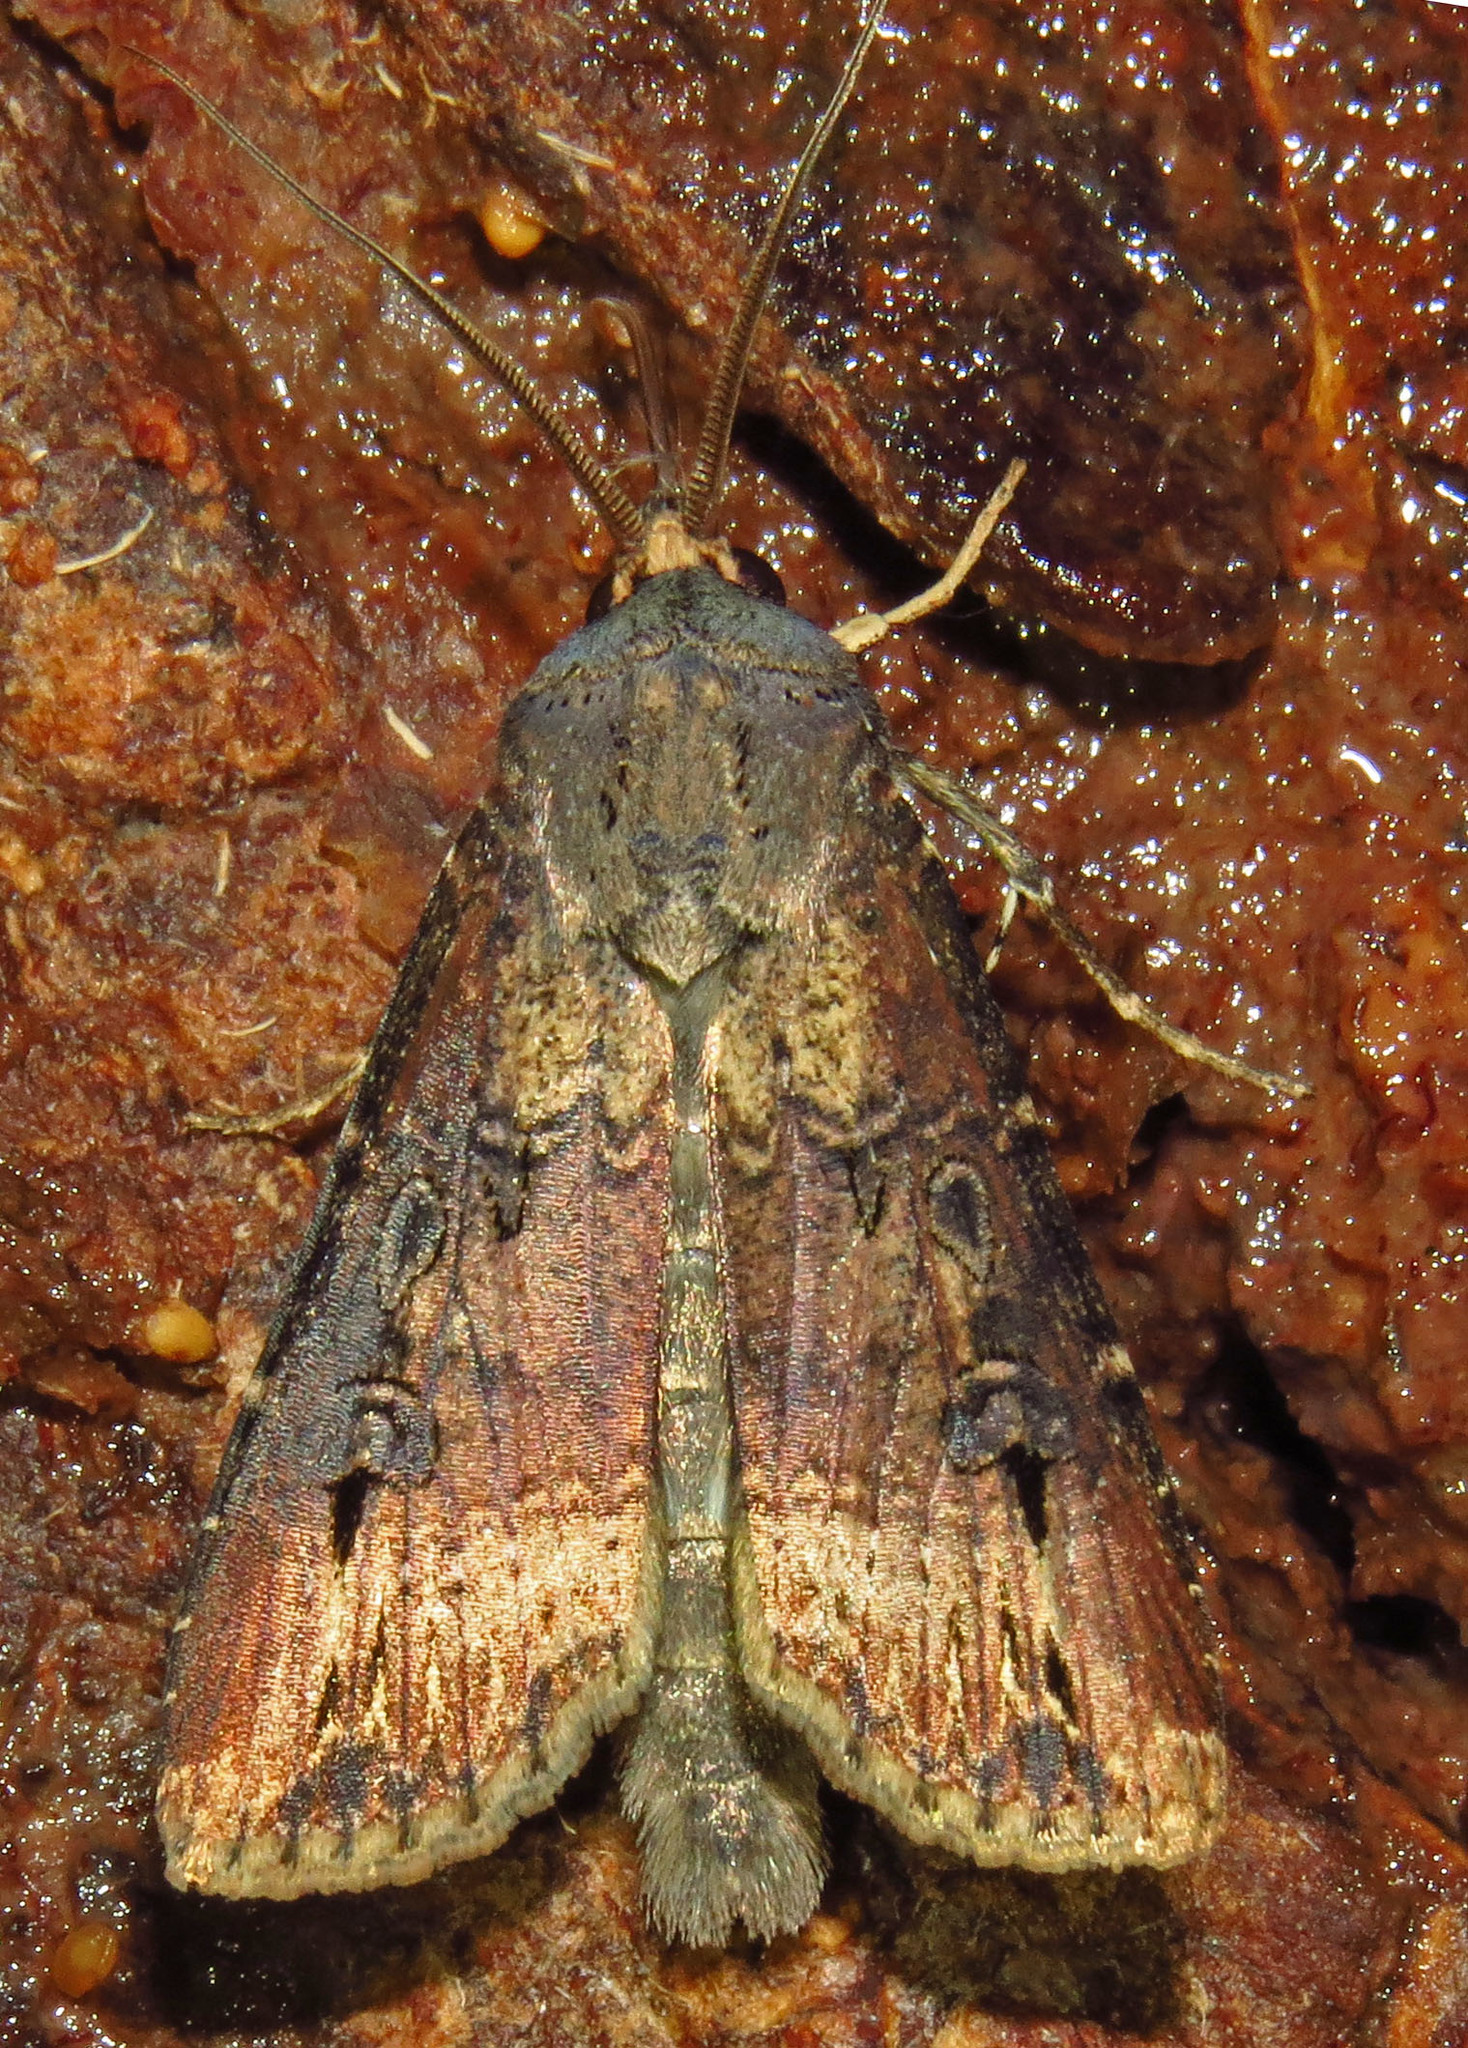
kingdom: Animalia
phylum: Arthropoda
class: Insecta
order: Lepidoptera
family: Noctuidae
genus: Agrotis
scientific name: Agrotis ipsilon
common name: Dark sword-grass
